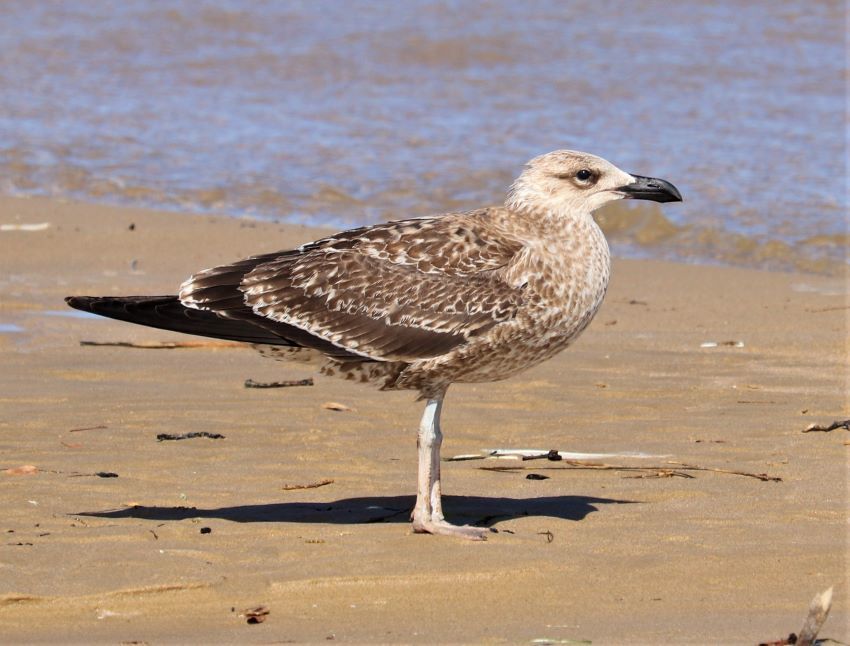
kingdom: Animalia
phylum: Chordata
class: Aves
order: Charadriiformes
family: Laridae
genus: Larus
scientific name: Larus dominicanus
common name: Kelp gull
